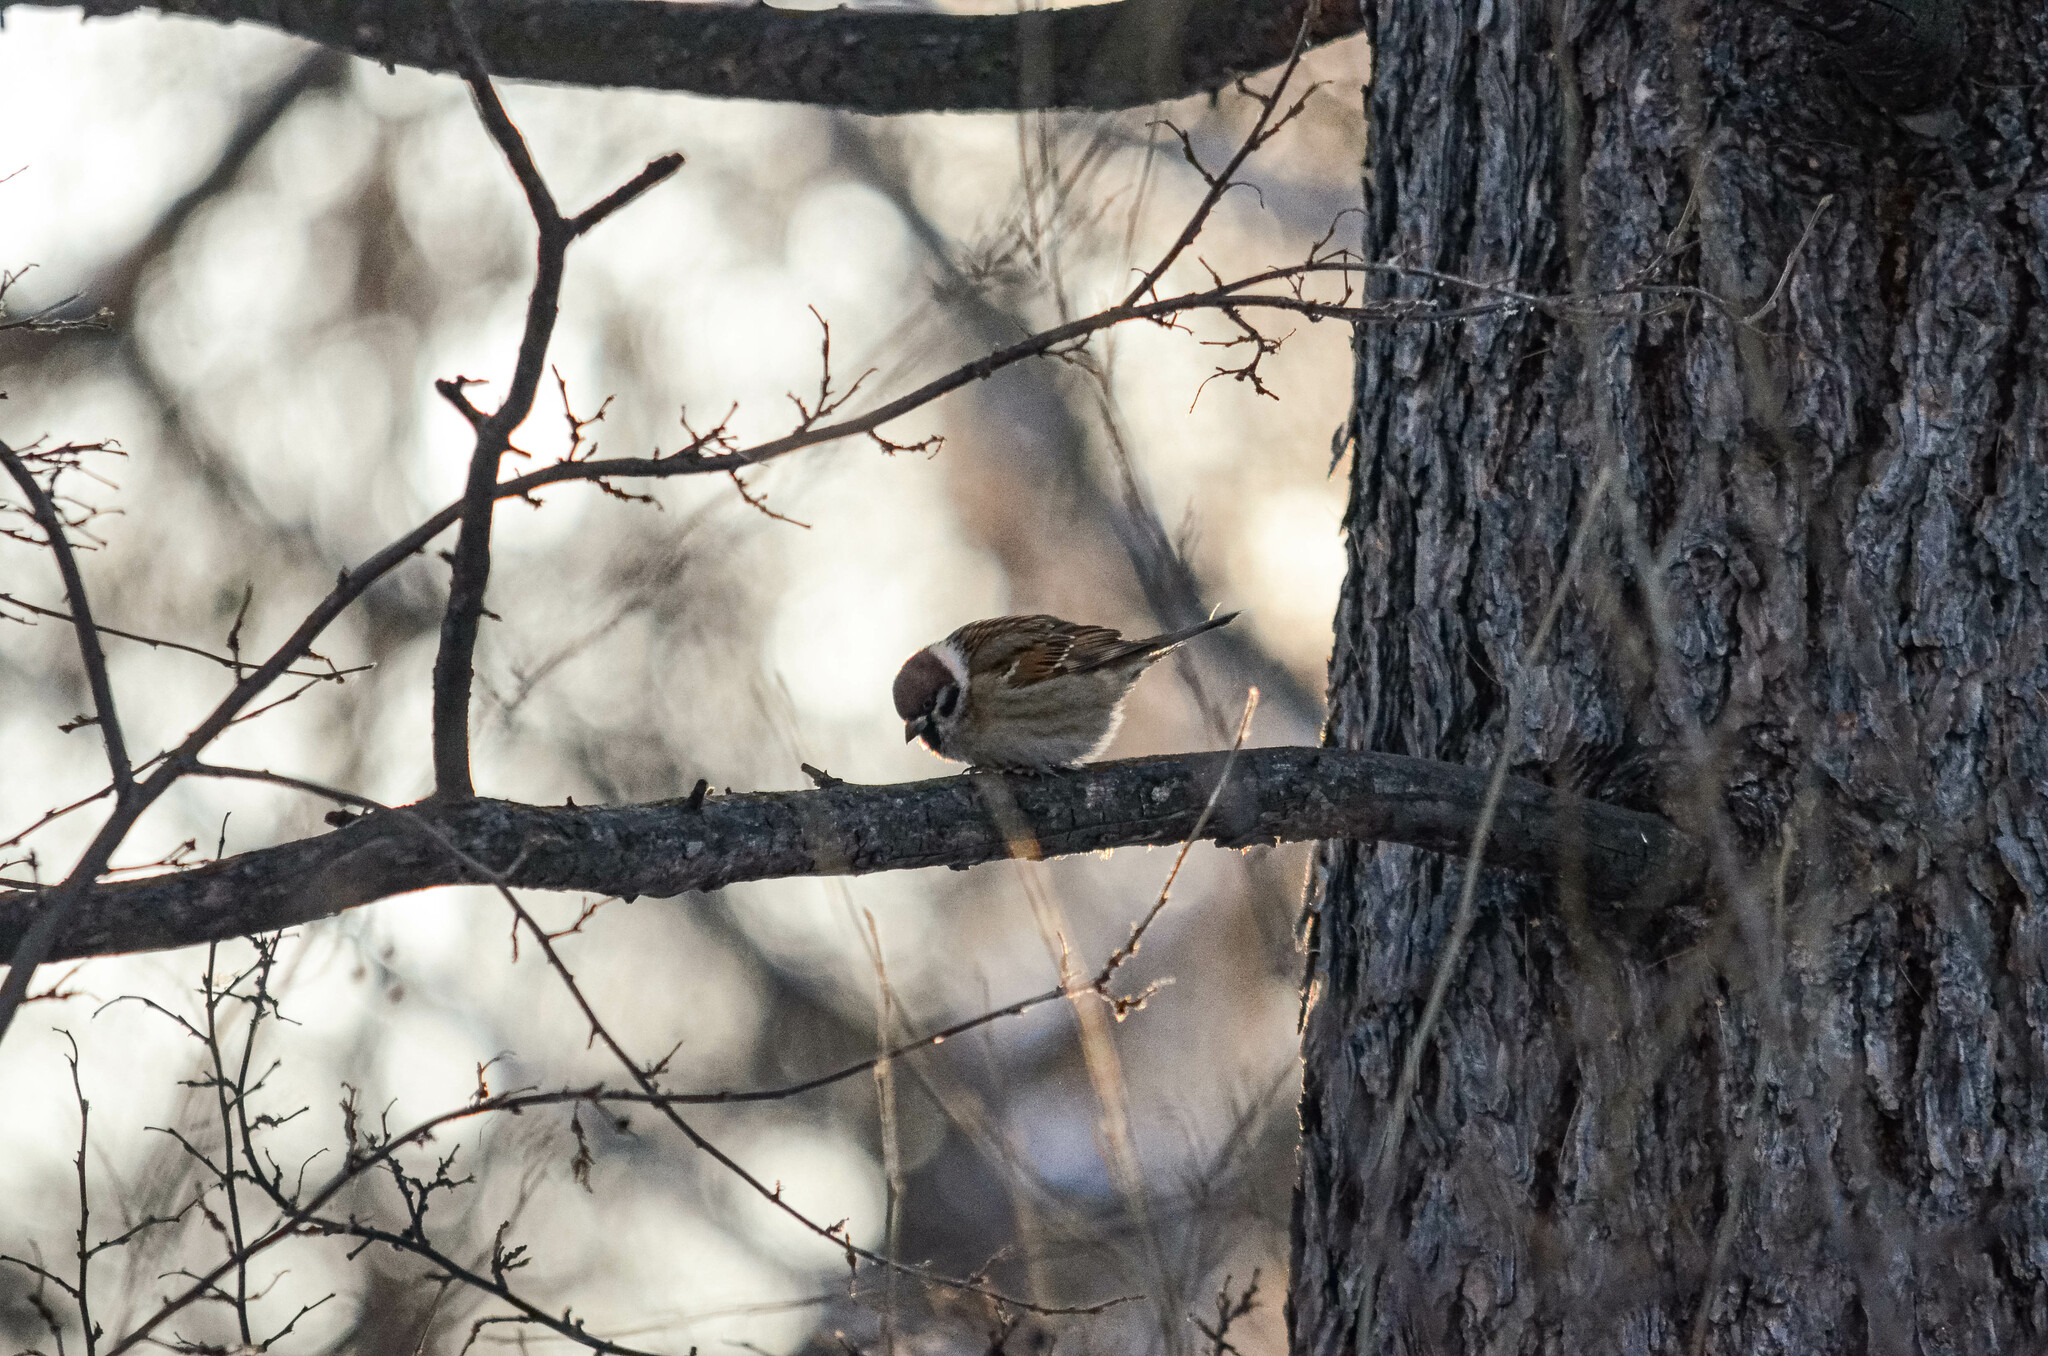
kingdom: Animalia
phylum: Chordata
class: Aves
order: Passeriformes
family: Passeridae
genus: Passer
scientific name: Passer montanus
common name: Eurasian tree sparrow
